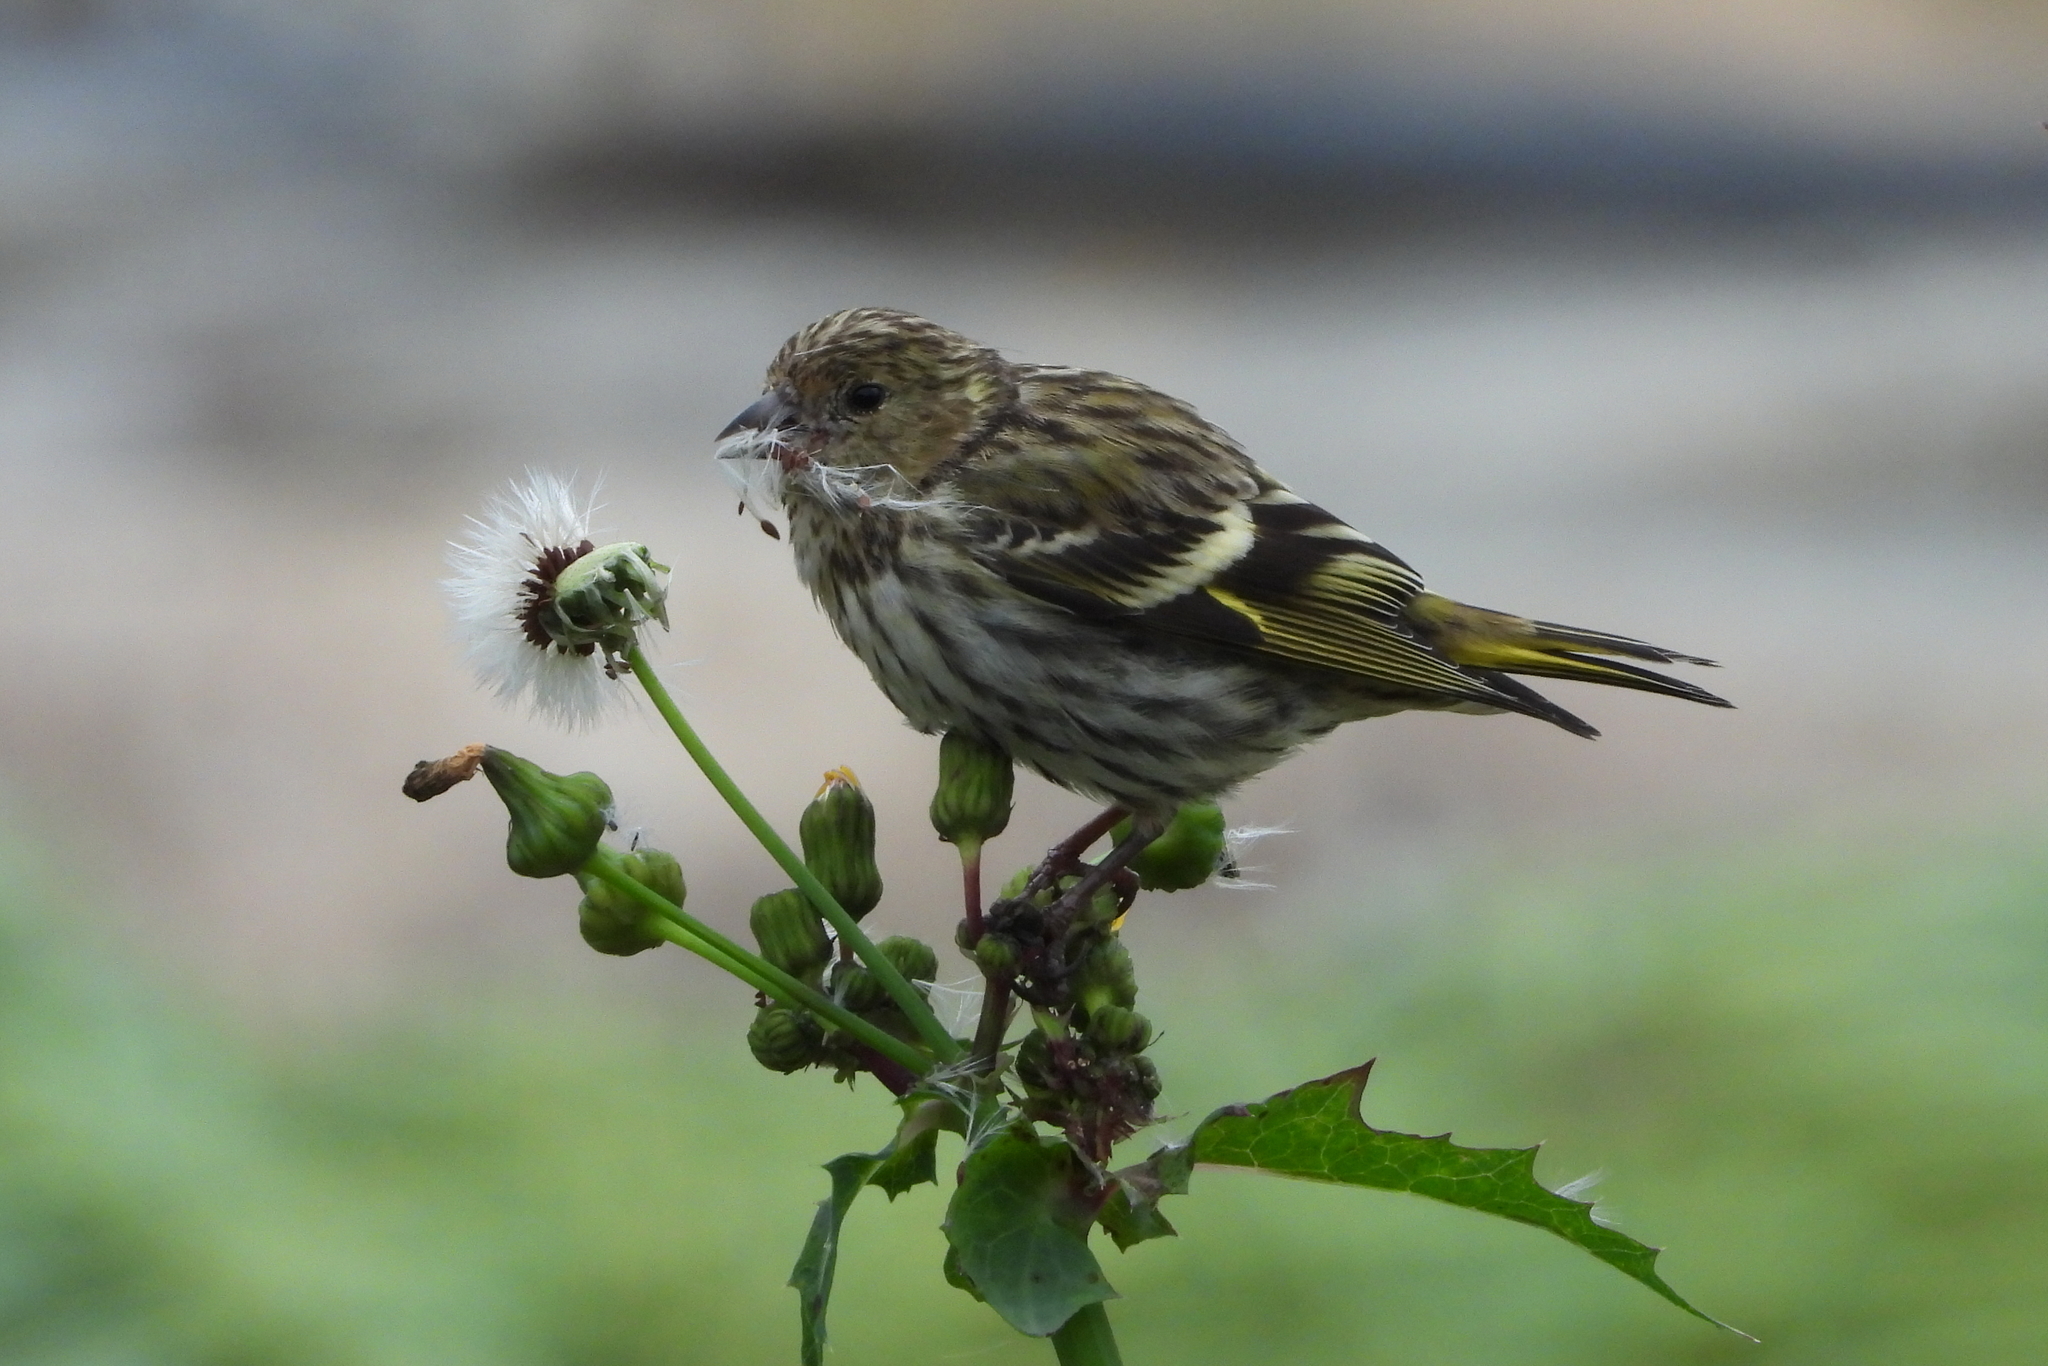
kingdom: Animalia
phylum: Chordata
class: Aves
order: Passeriformes
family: Fringillidae
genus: Spinus
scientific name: Spinus spinus
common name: Eurasian siskin
